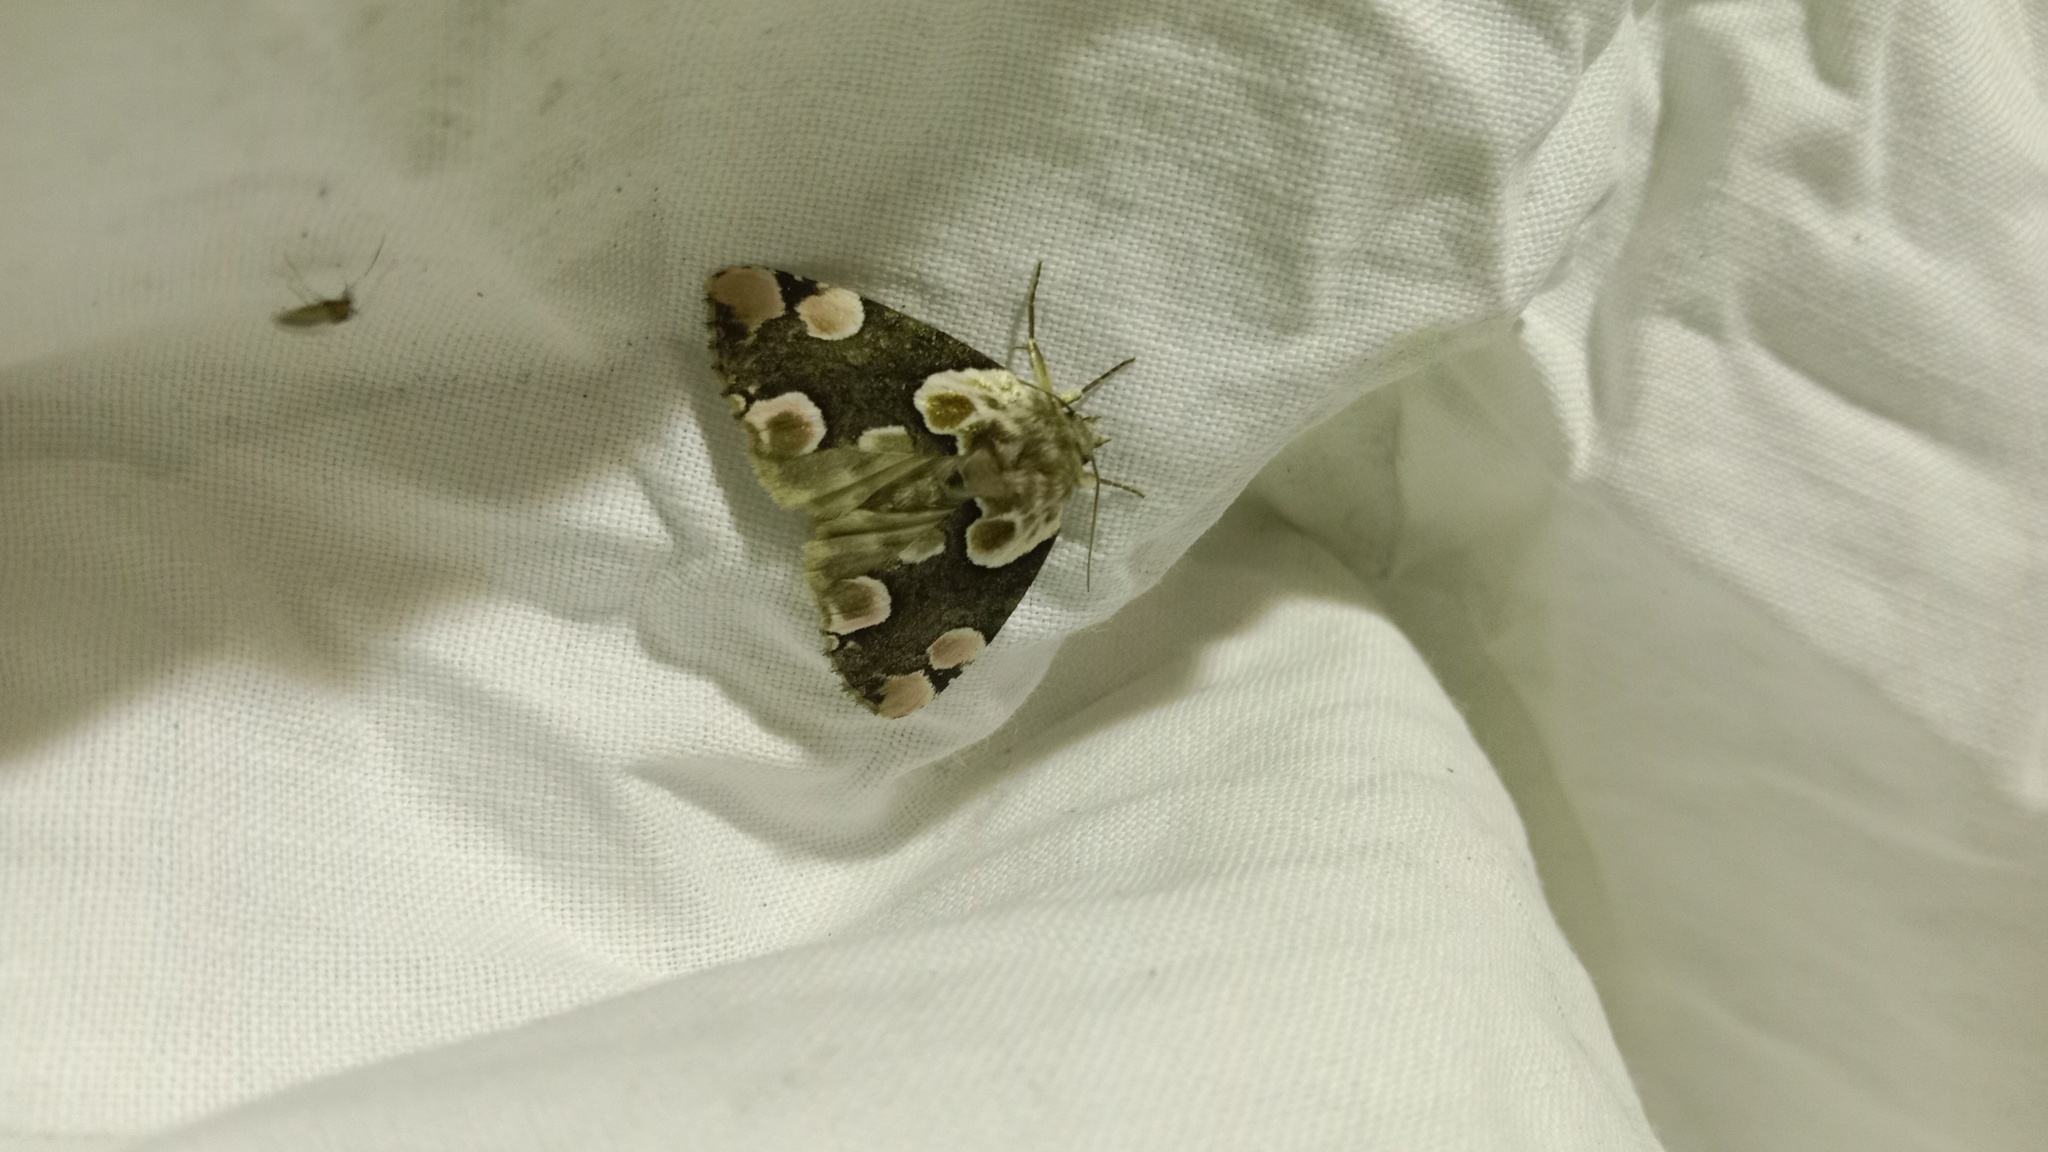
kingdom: Animalia
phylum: Arthropoda
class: Insecta
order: Lepidoptera
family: Drepanidae
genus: Thyatira
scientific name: Thyatira batis
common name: Peach blossom
